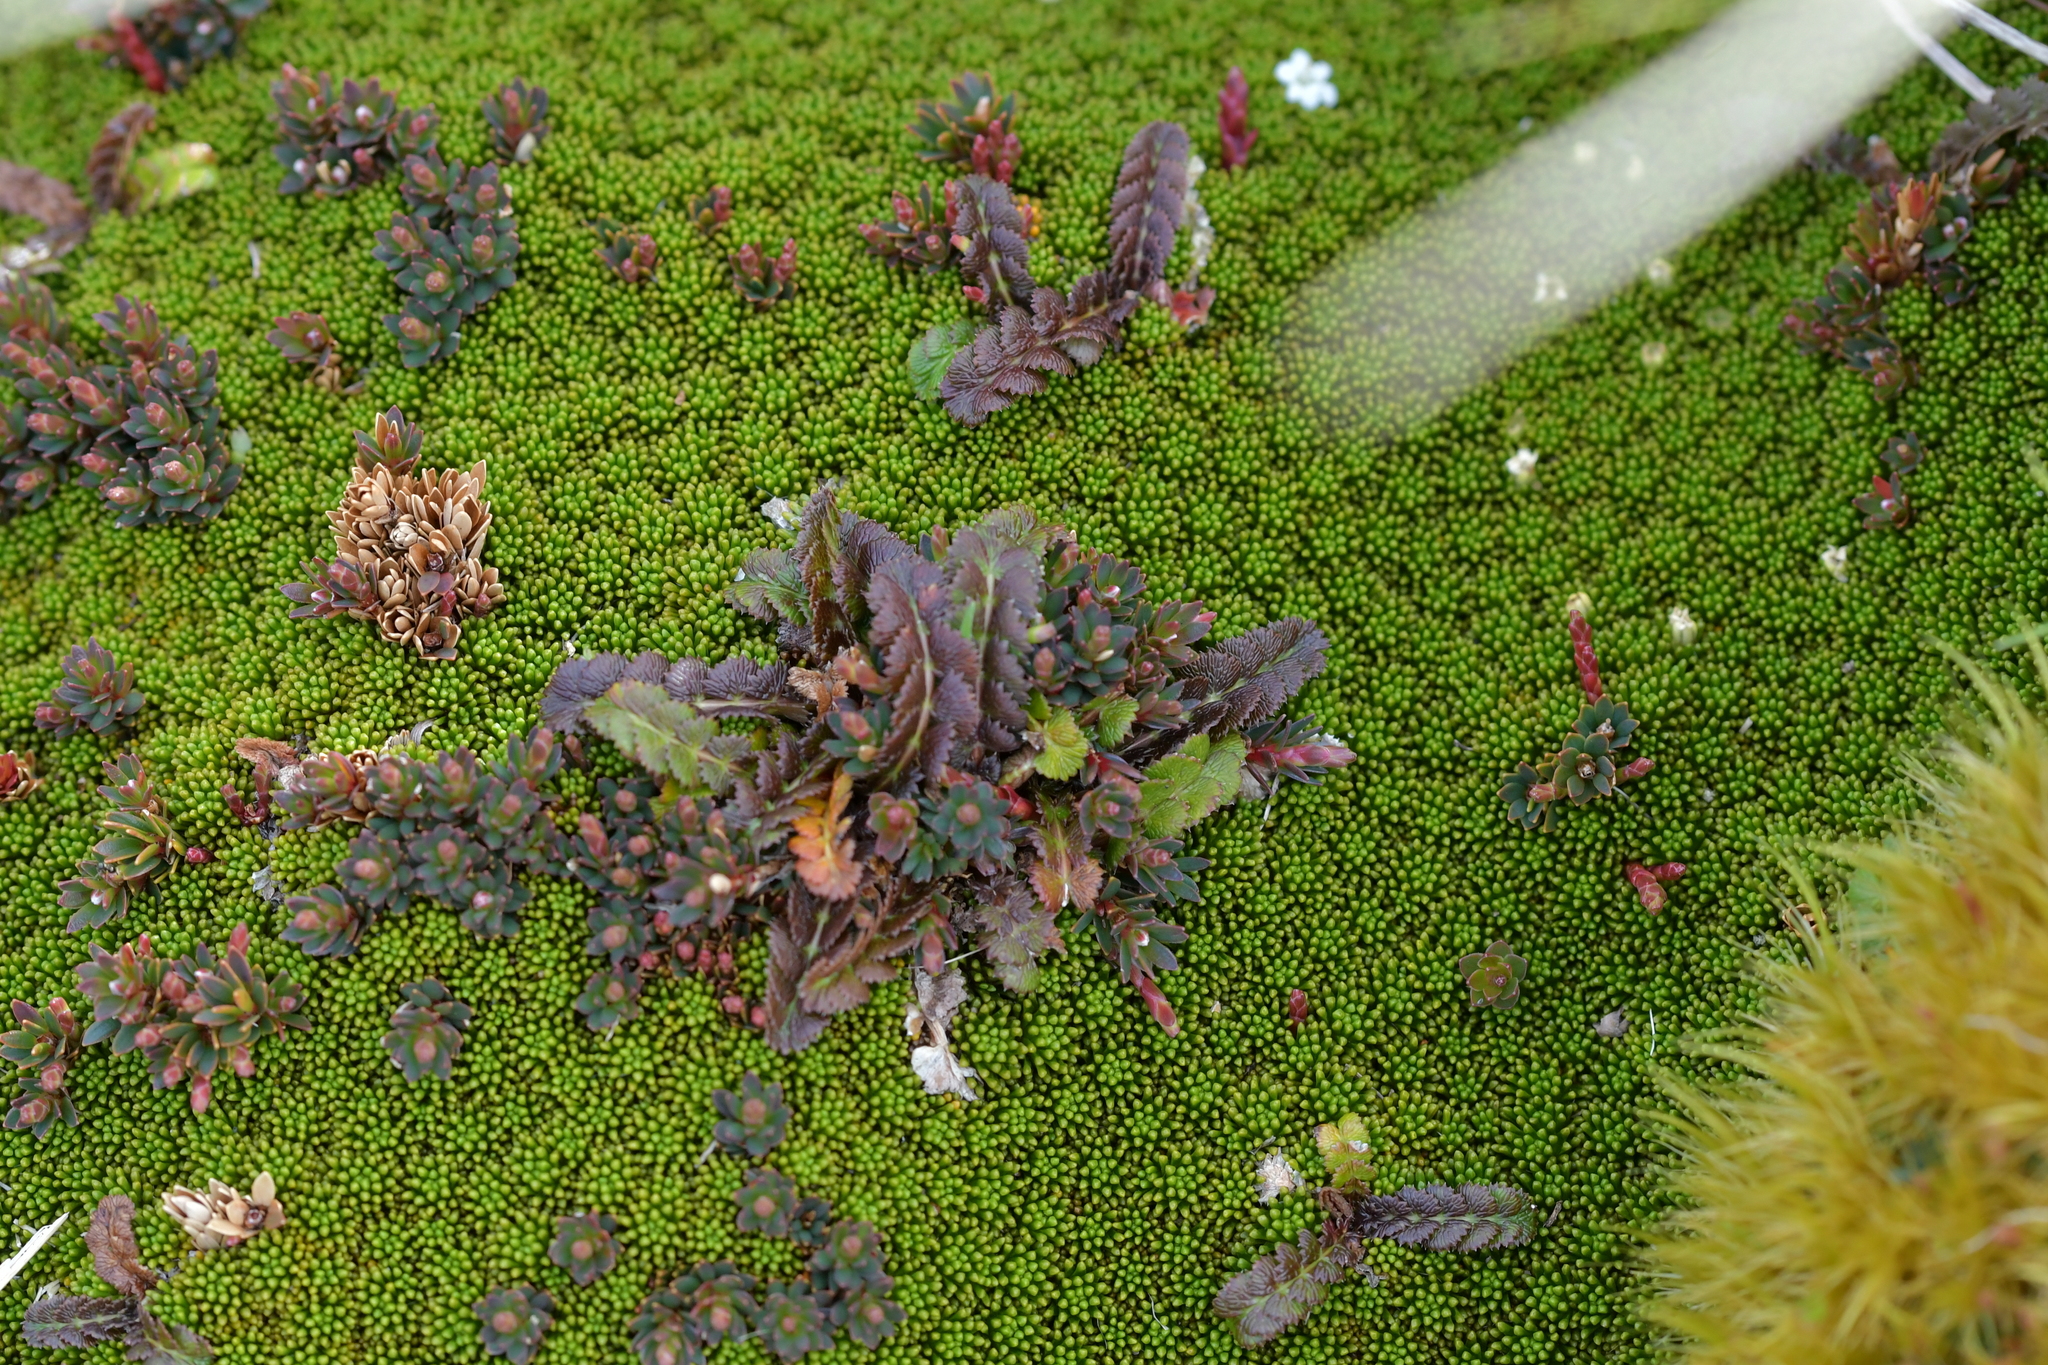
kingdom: Plantae
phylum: Tracheophyta
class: Magnoliopsida
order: Apiales
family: Apiaceae
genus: Anisotome
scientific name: Anisotome aromatica
